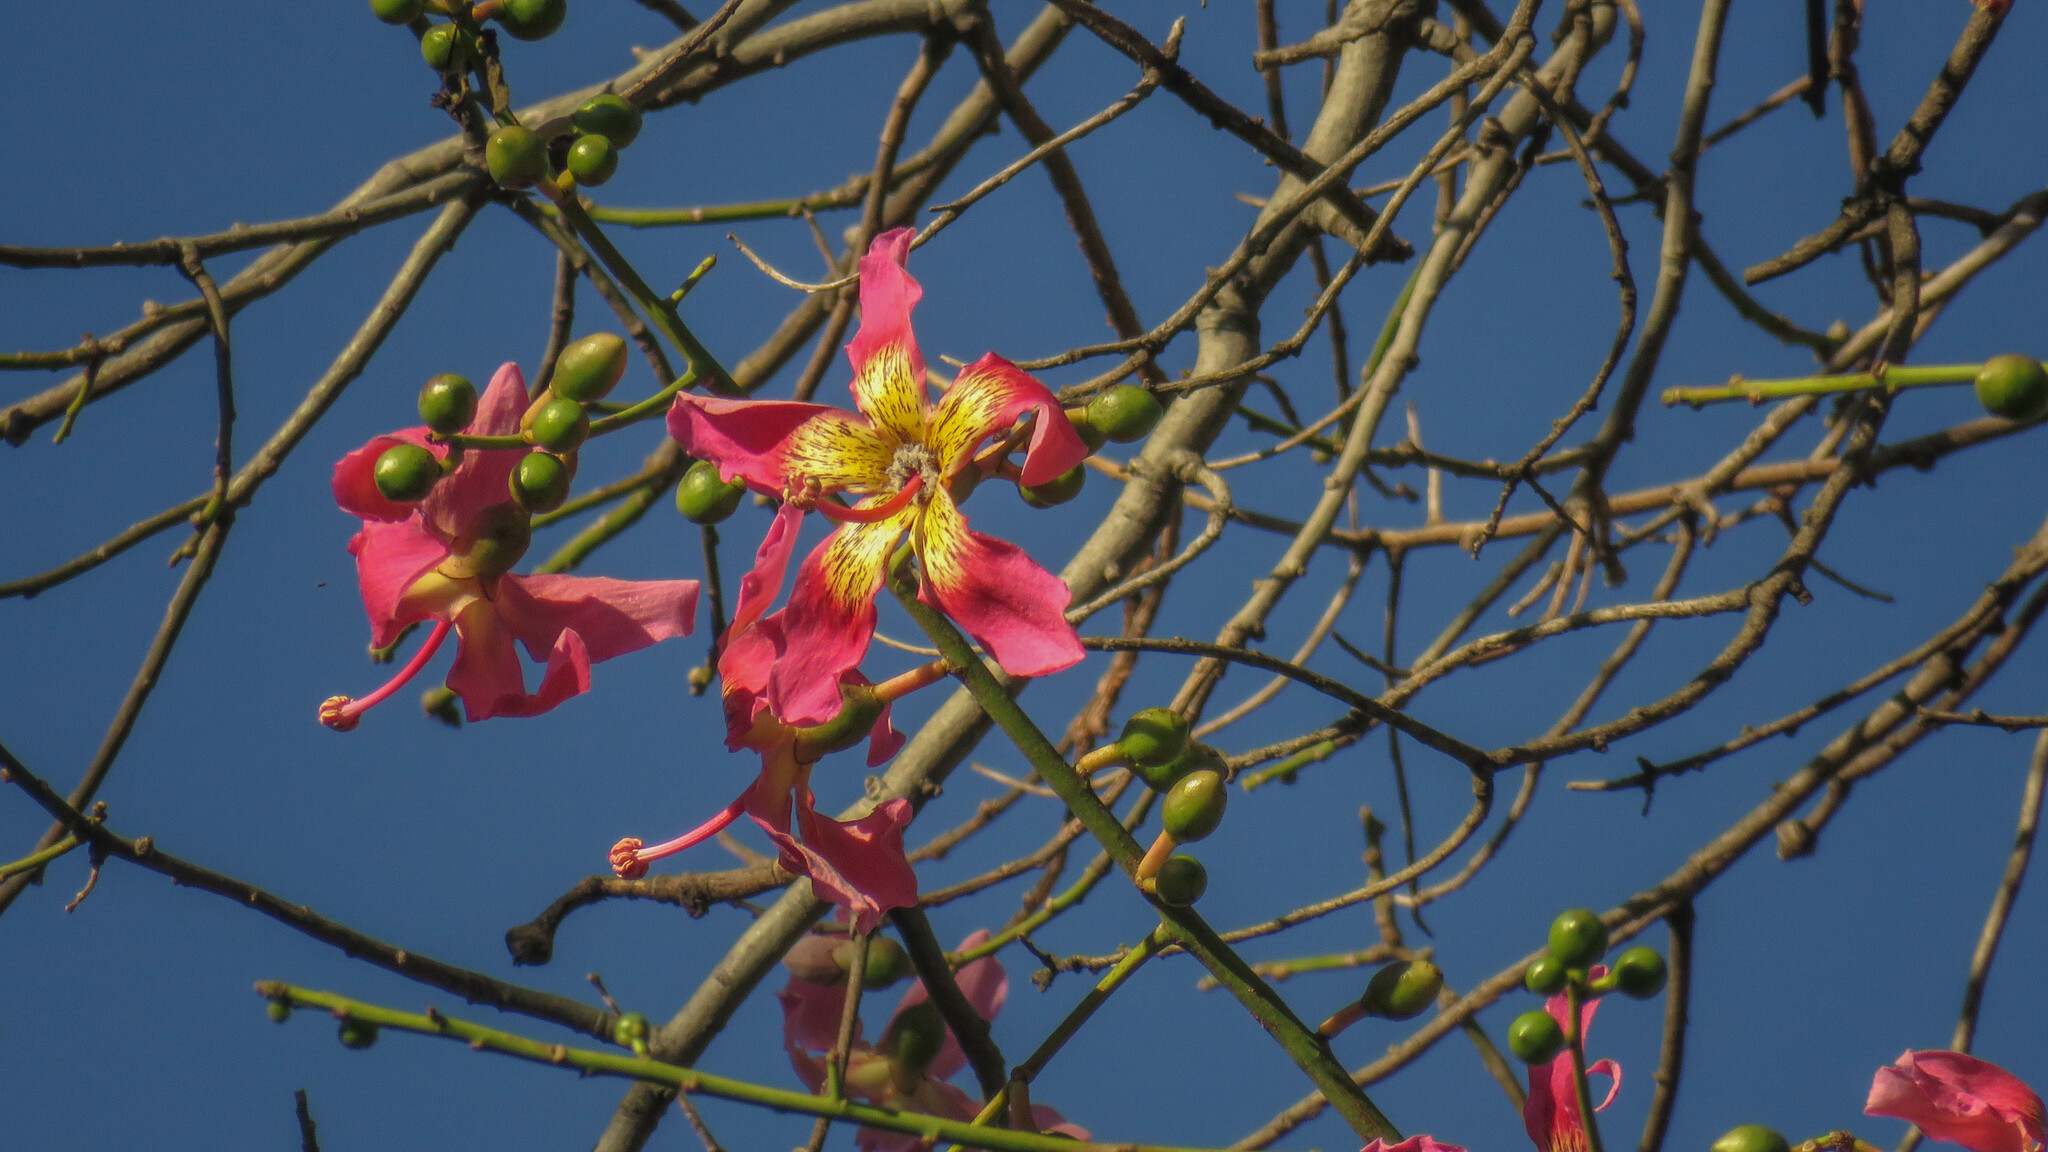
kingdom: Plantae
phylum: Tracheophyta
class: Magnoliopsida
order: Malvales
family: Malvaceae
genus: Ceiba
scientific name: Ceiba speciosa
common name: Silk-floss tree
